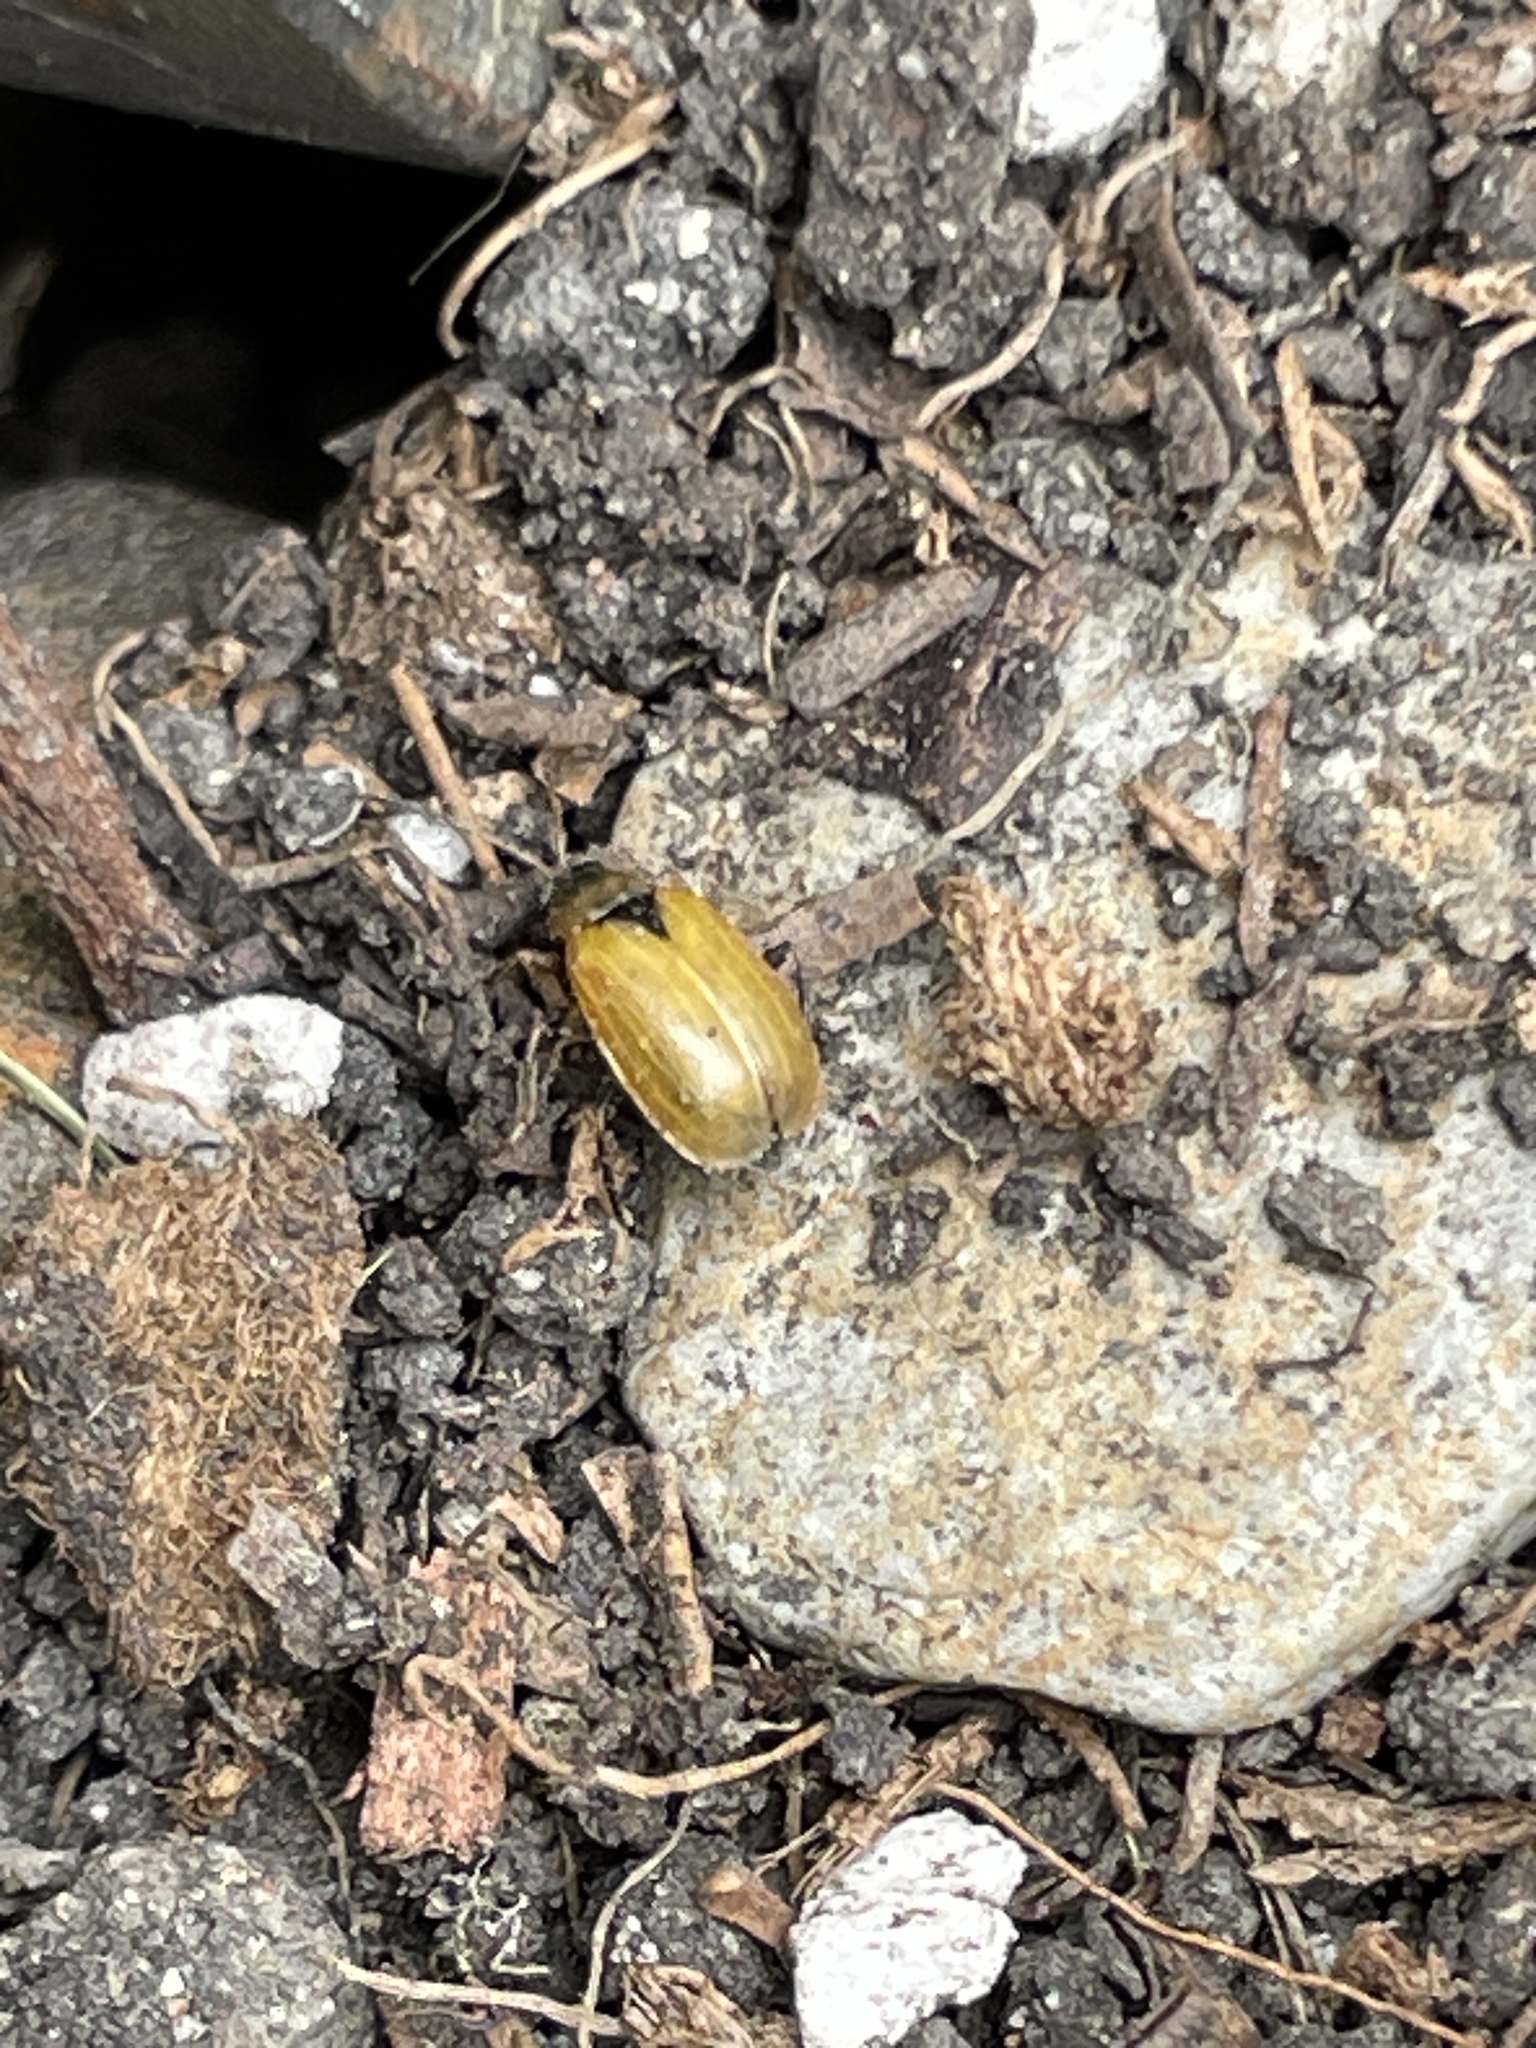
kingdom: Animalia
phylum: Arthropoda
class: Insecta
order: Coleoptera
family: Chrysomelidae
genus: Cerotoma
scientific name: Cerotoma trifurcata
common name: Bean leaf beetle
